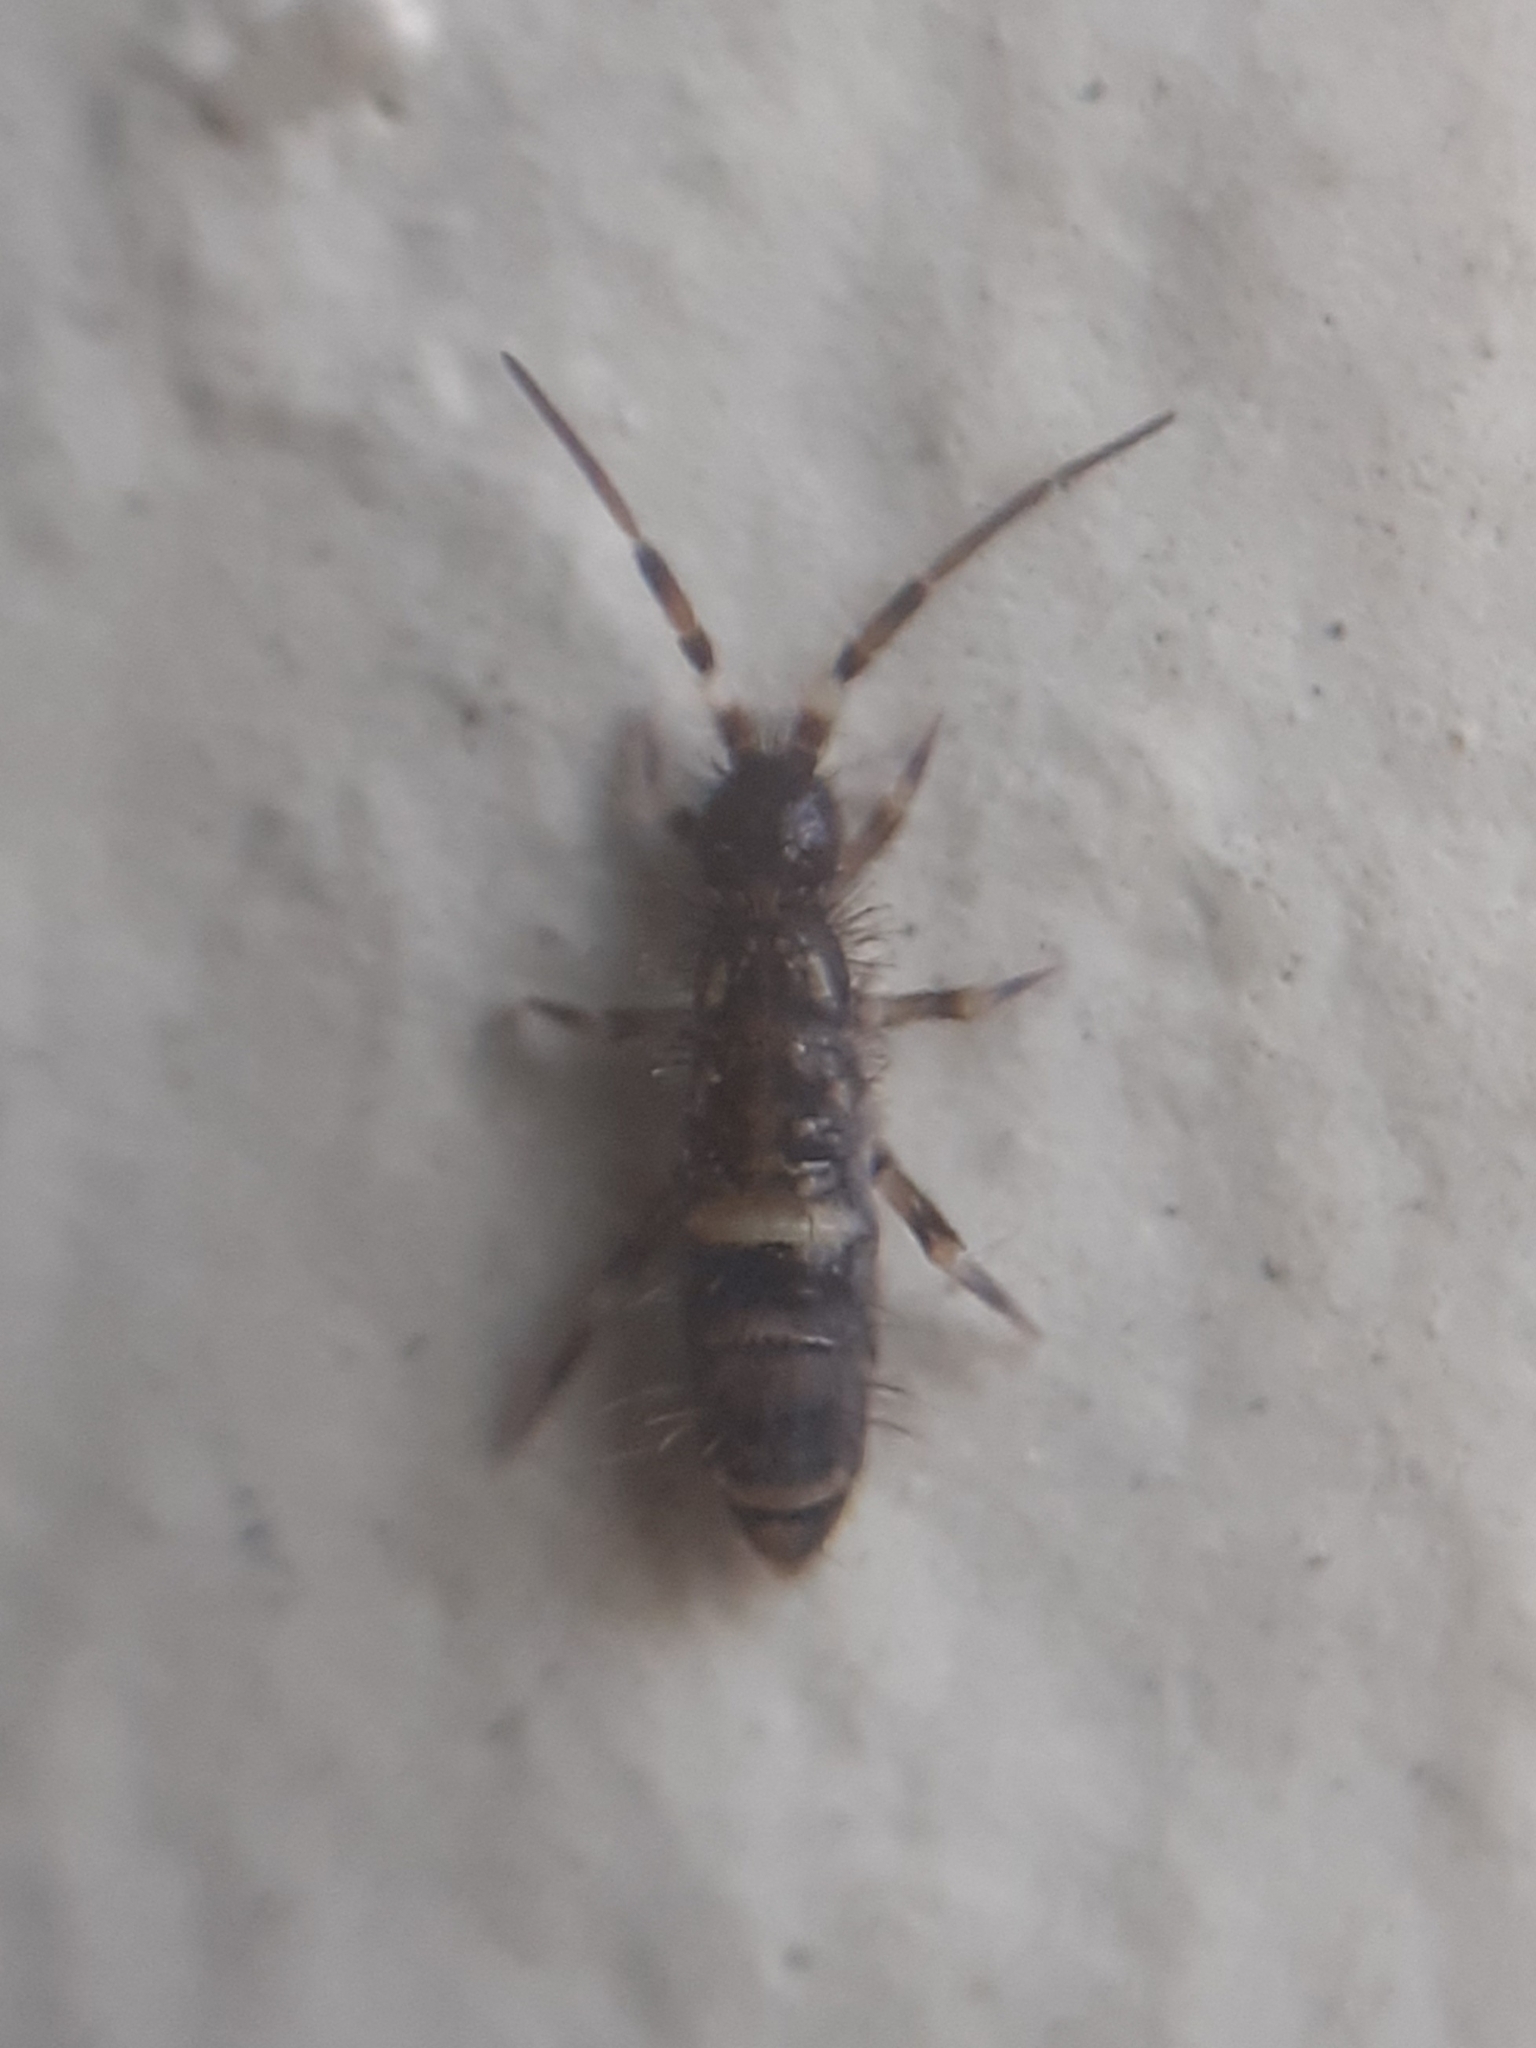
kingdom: Animalia
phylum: Arthropoda
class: Collembola
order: Entomobryomorpha
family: Orchesellidae
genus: Orchesella
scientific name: Orchesella cincta
